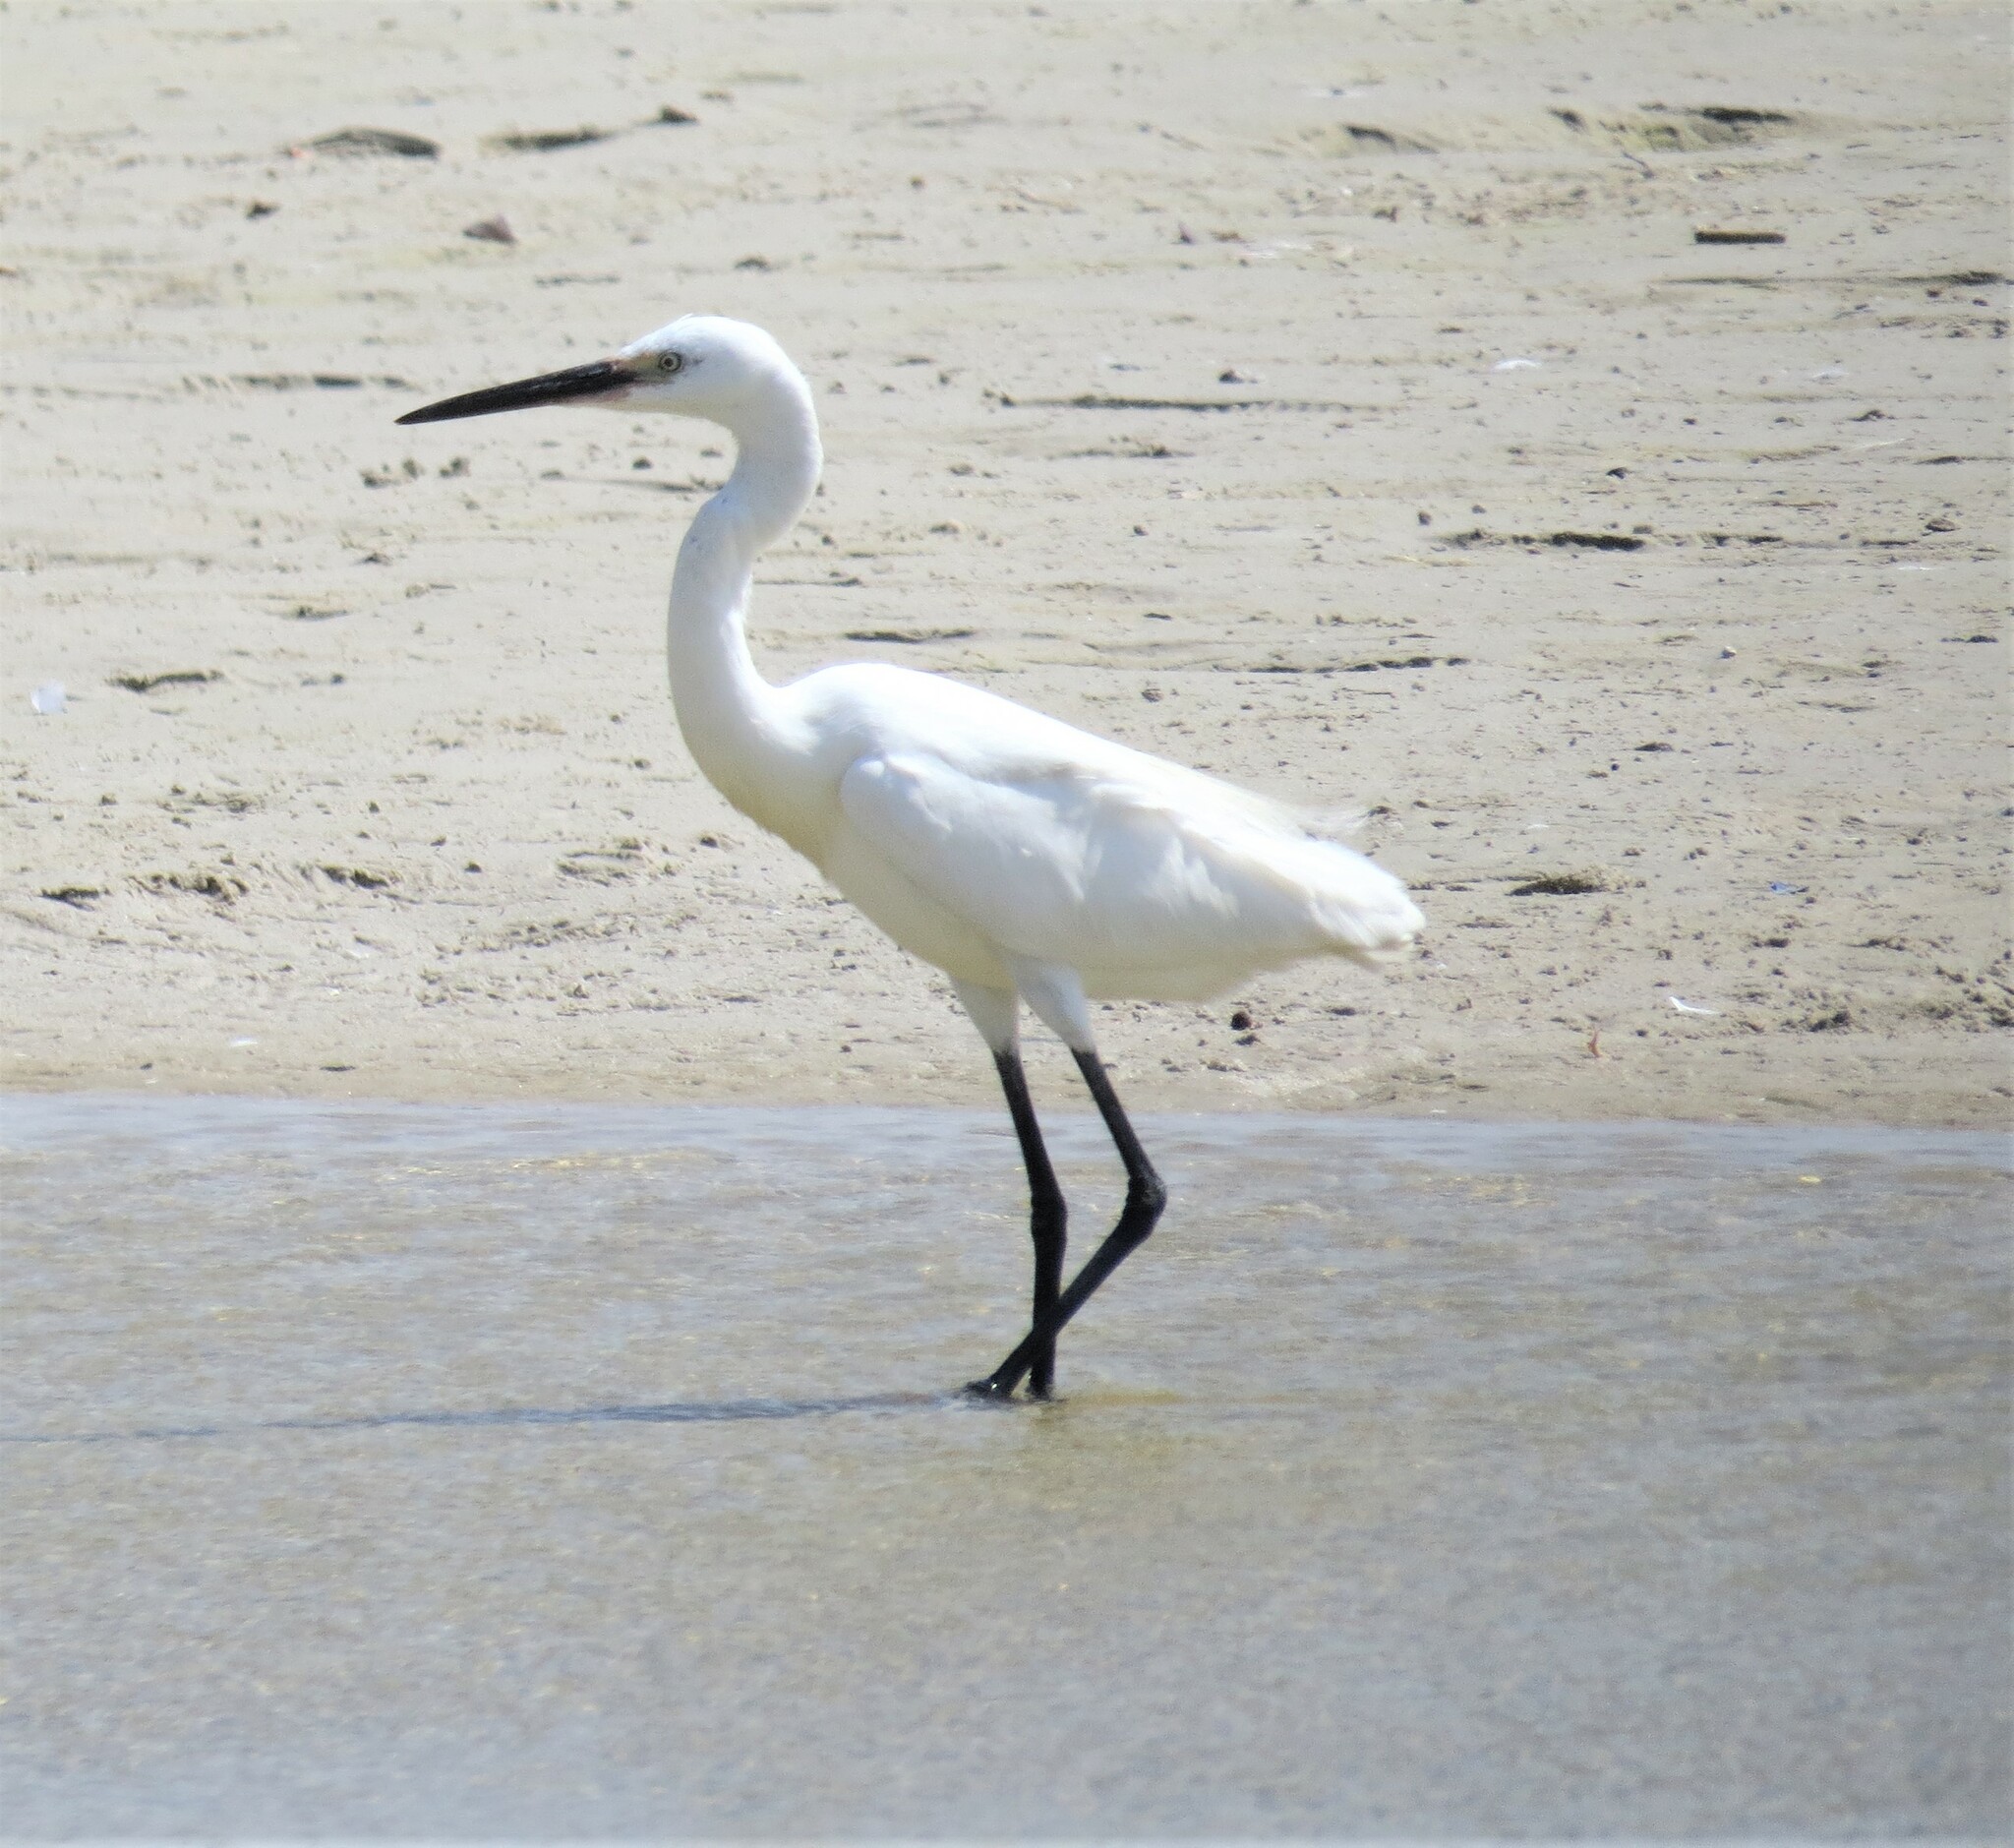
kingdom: Animalia
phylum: Chordata
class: Aves
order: Pelecaniformes
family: Ardeidae
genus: Egretta
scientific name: Egretta garzetta
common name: Little egret
